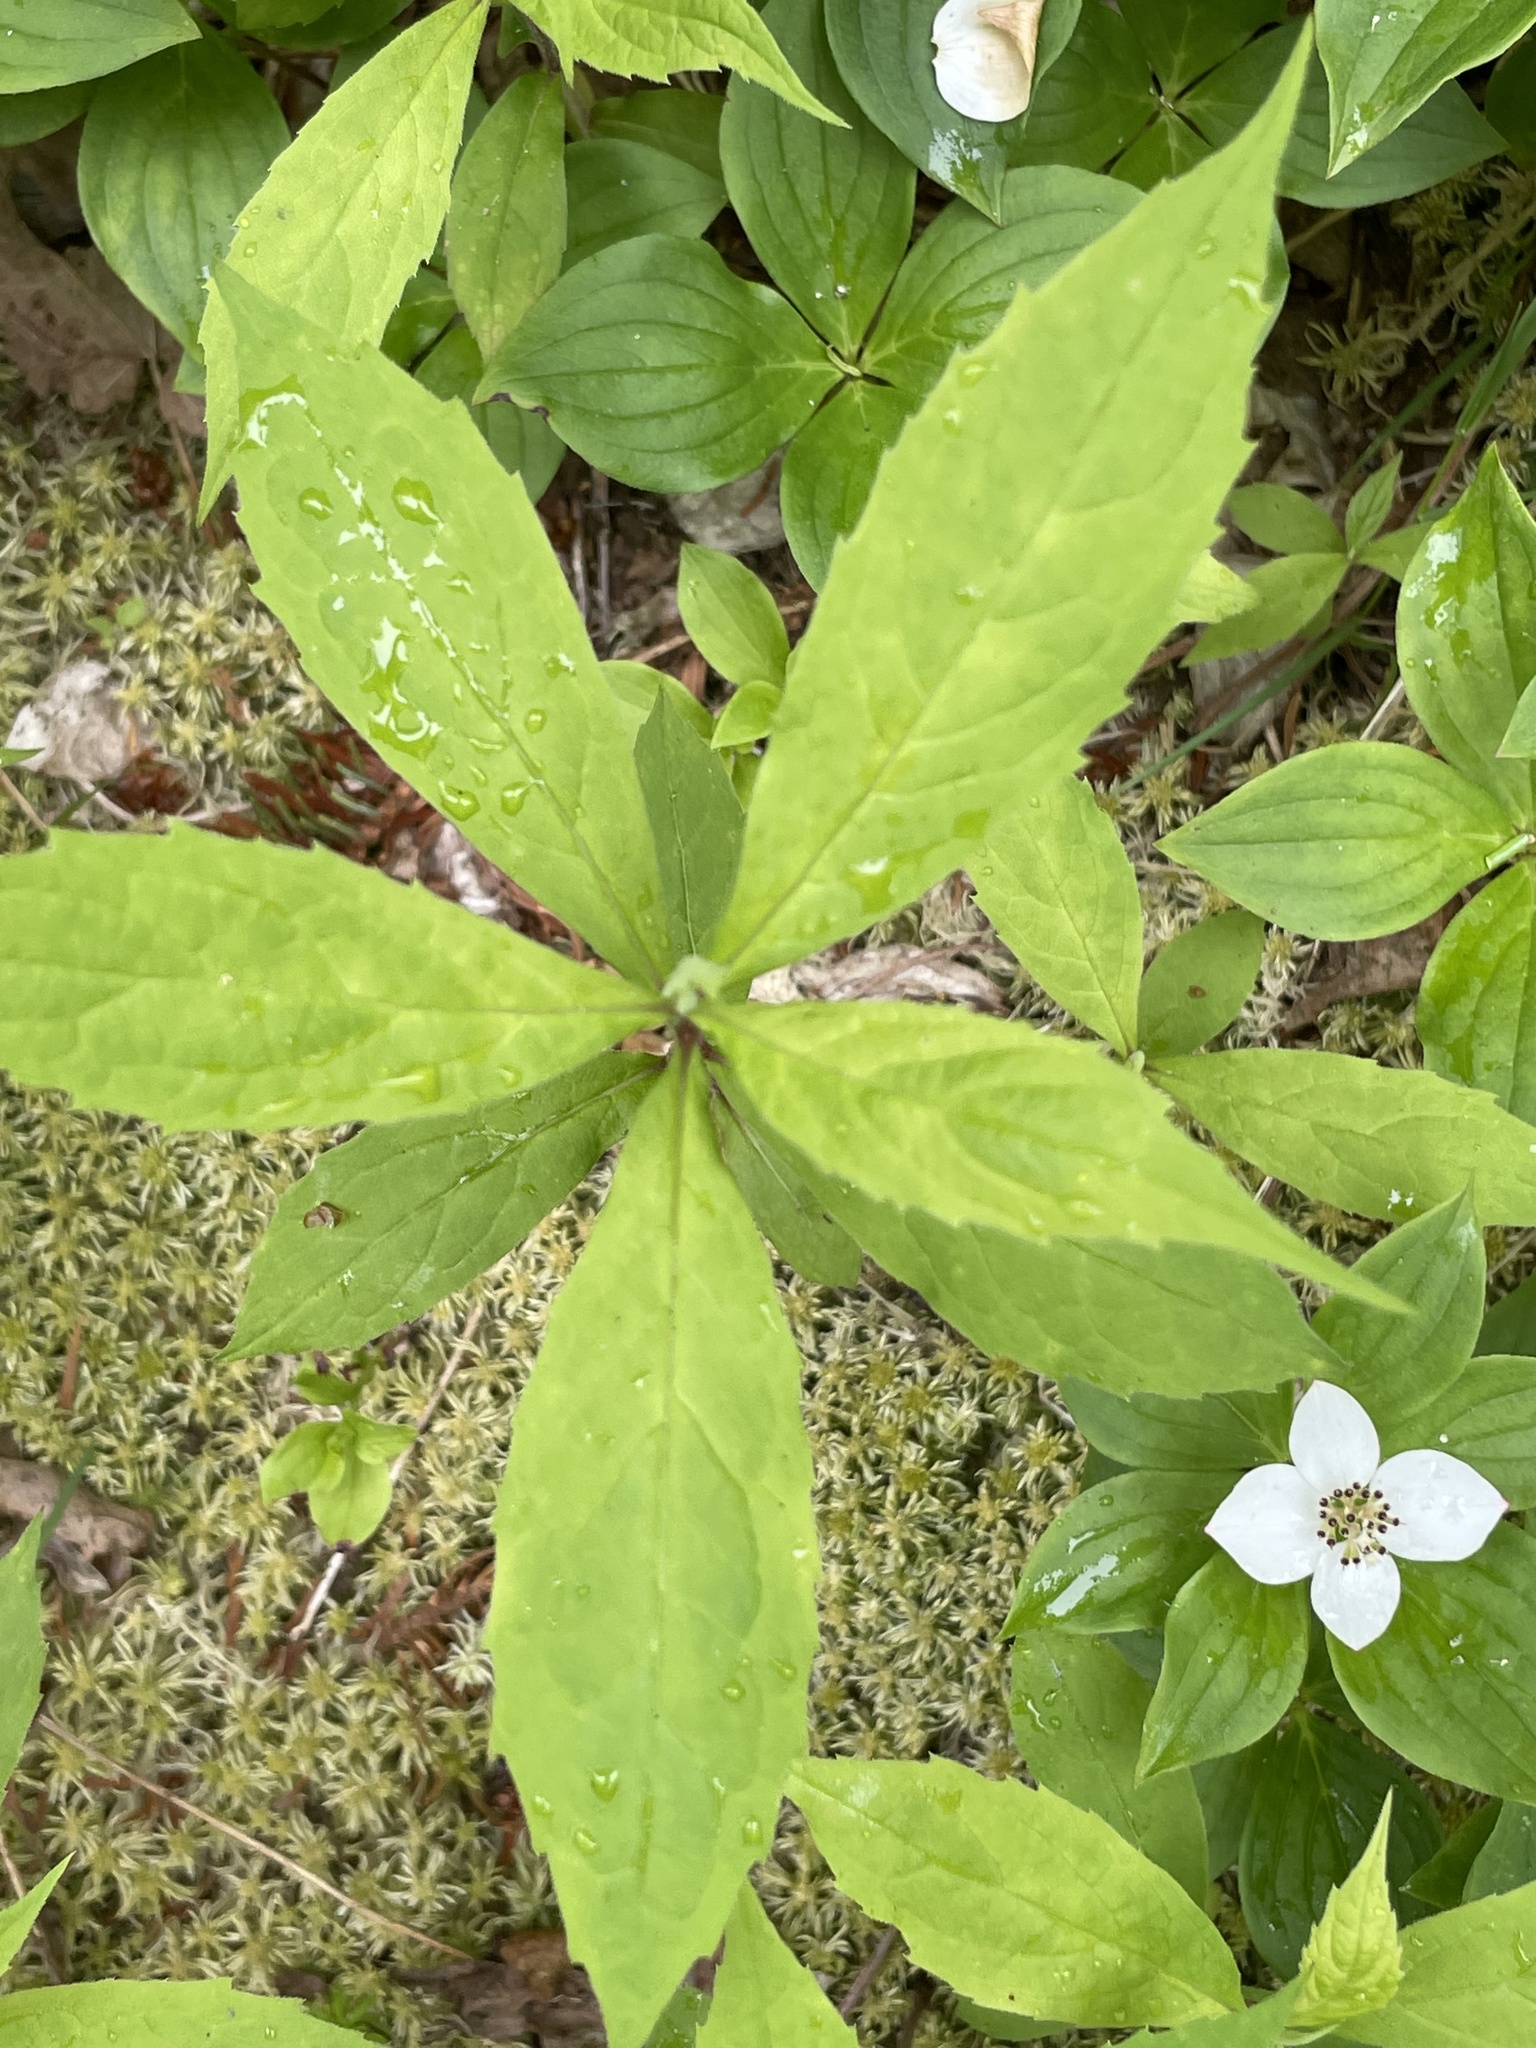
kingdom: Plantae
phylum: Tracheophyta
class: Magnoliopsida
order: Asterales
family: Asteraceae
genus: Oclemena
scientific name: Oclemena acuminata
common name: Mountain aster
